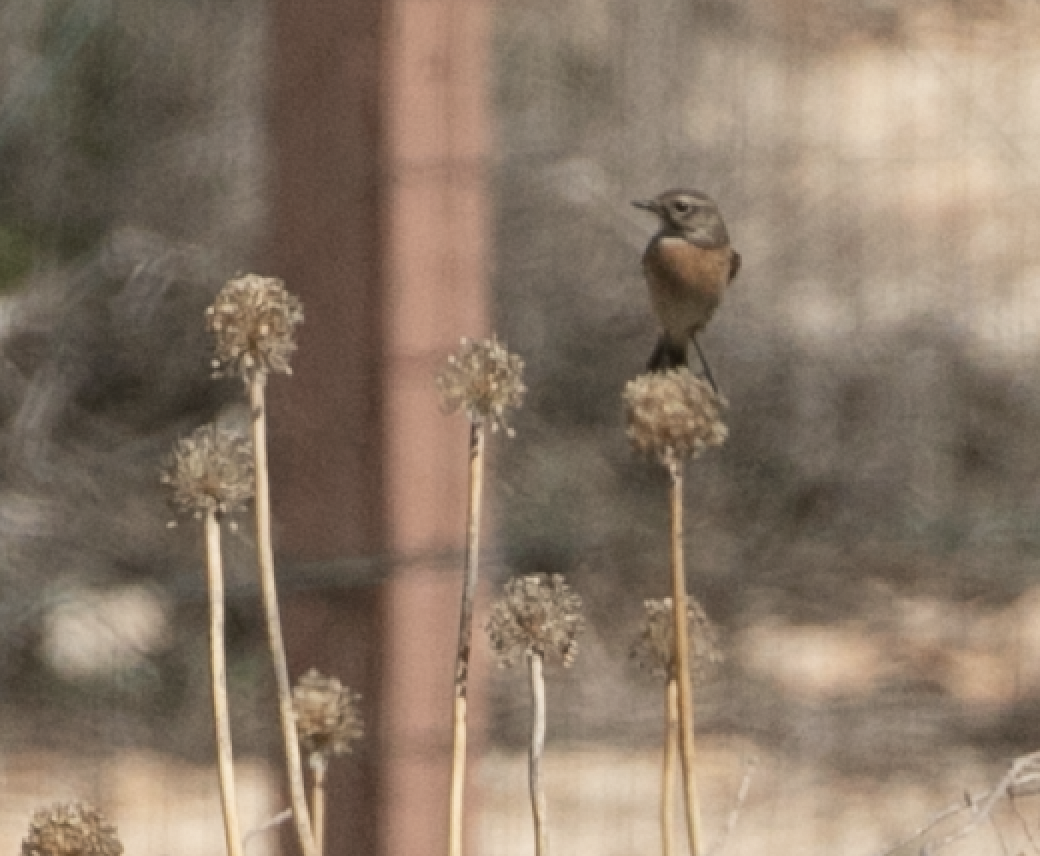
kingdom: Animalia
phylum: Chordata
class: Aves
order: Passeriformes
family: Muscicapidae
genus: Saxicola
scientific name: Saxicola rubicola
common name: European stonechat
